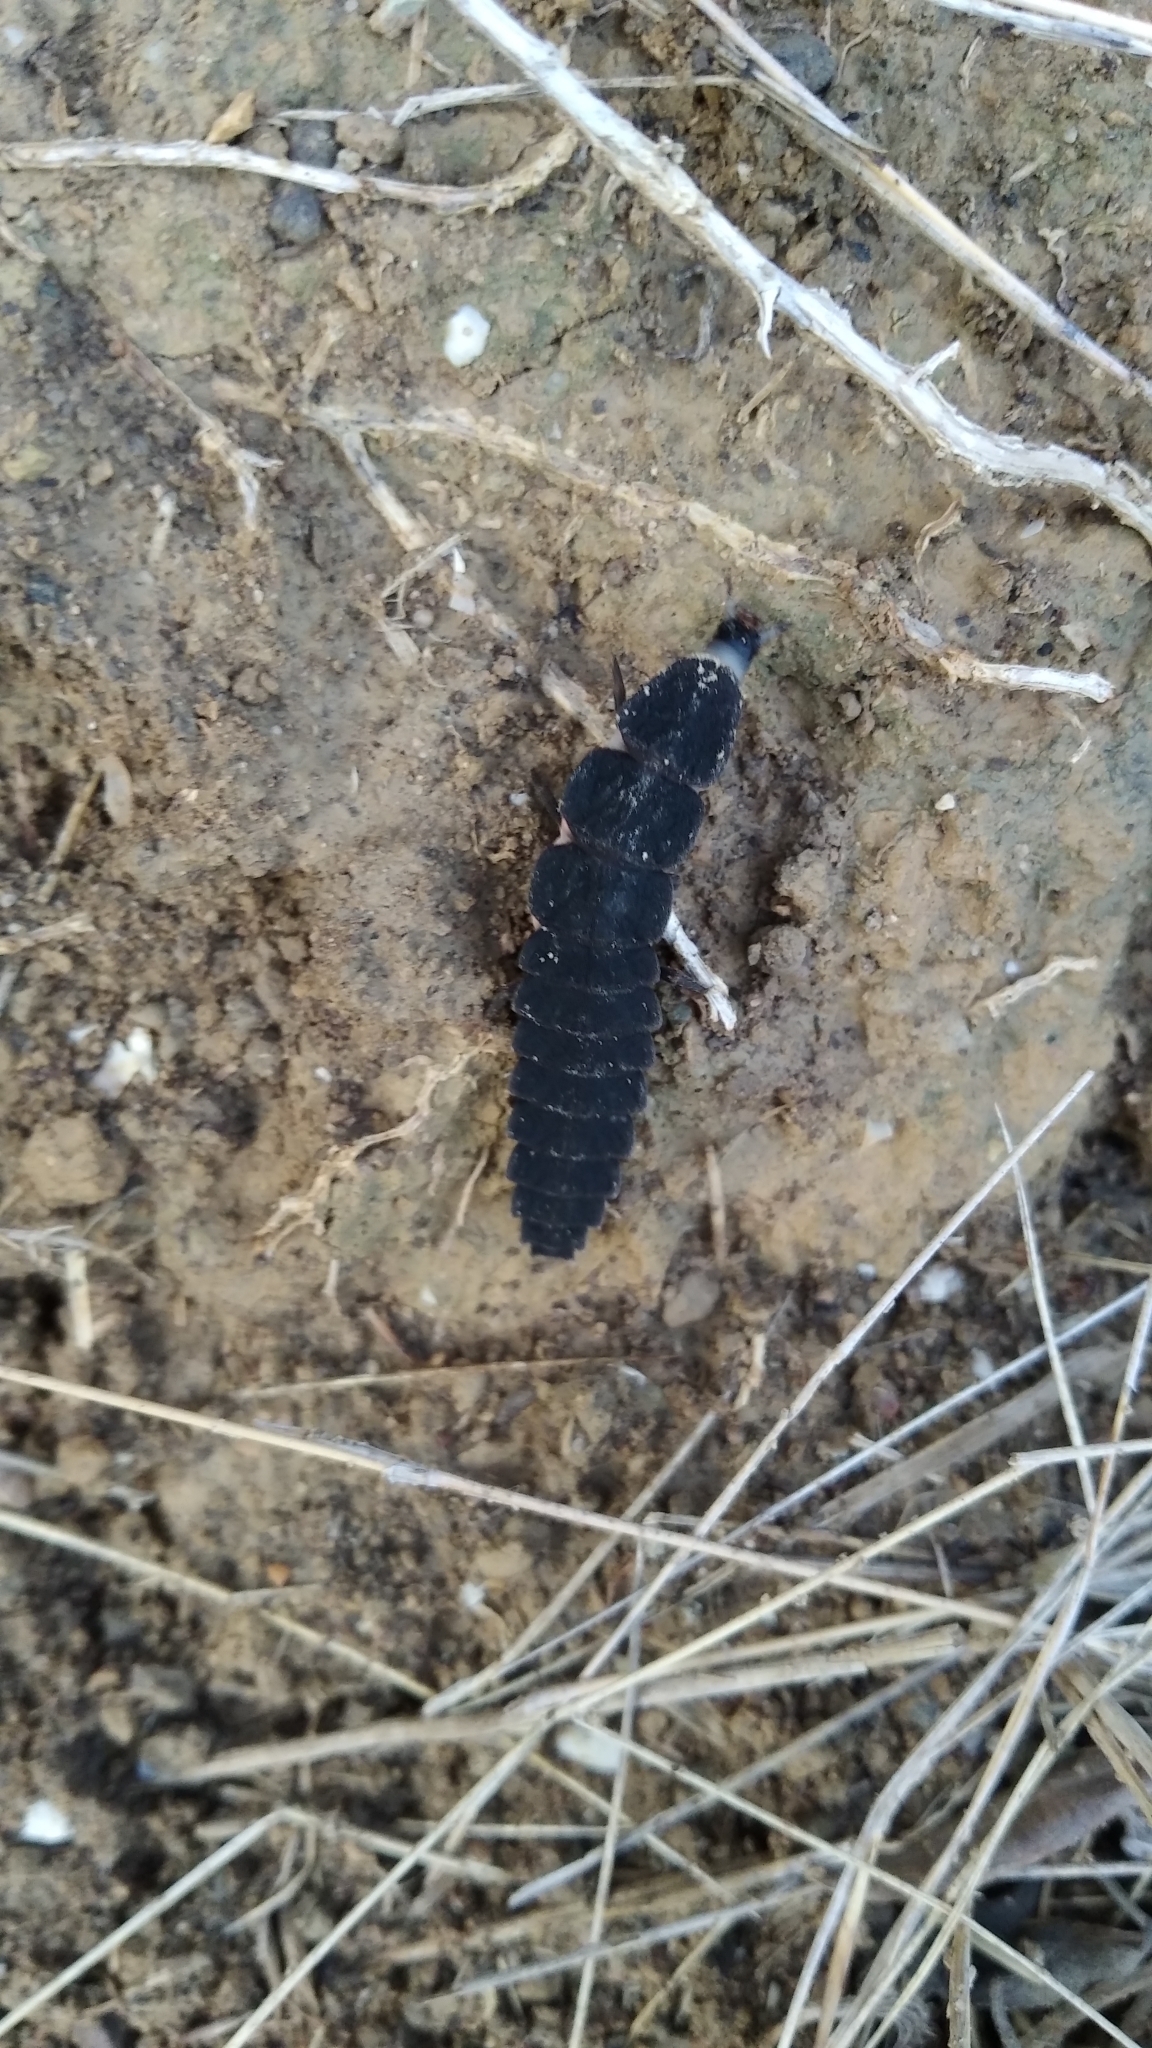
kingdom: Animalia
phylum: Arthropoda
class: Insecta
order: Coleoptera
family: Lampyridae
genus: Nyctophila
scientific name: Nyctophila reichii
